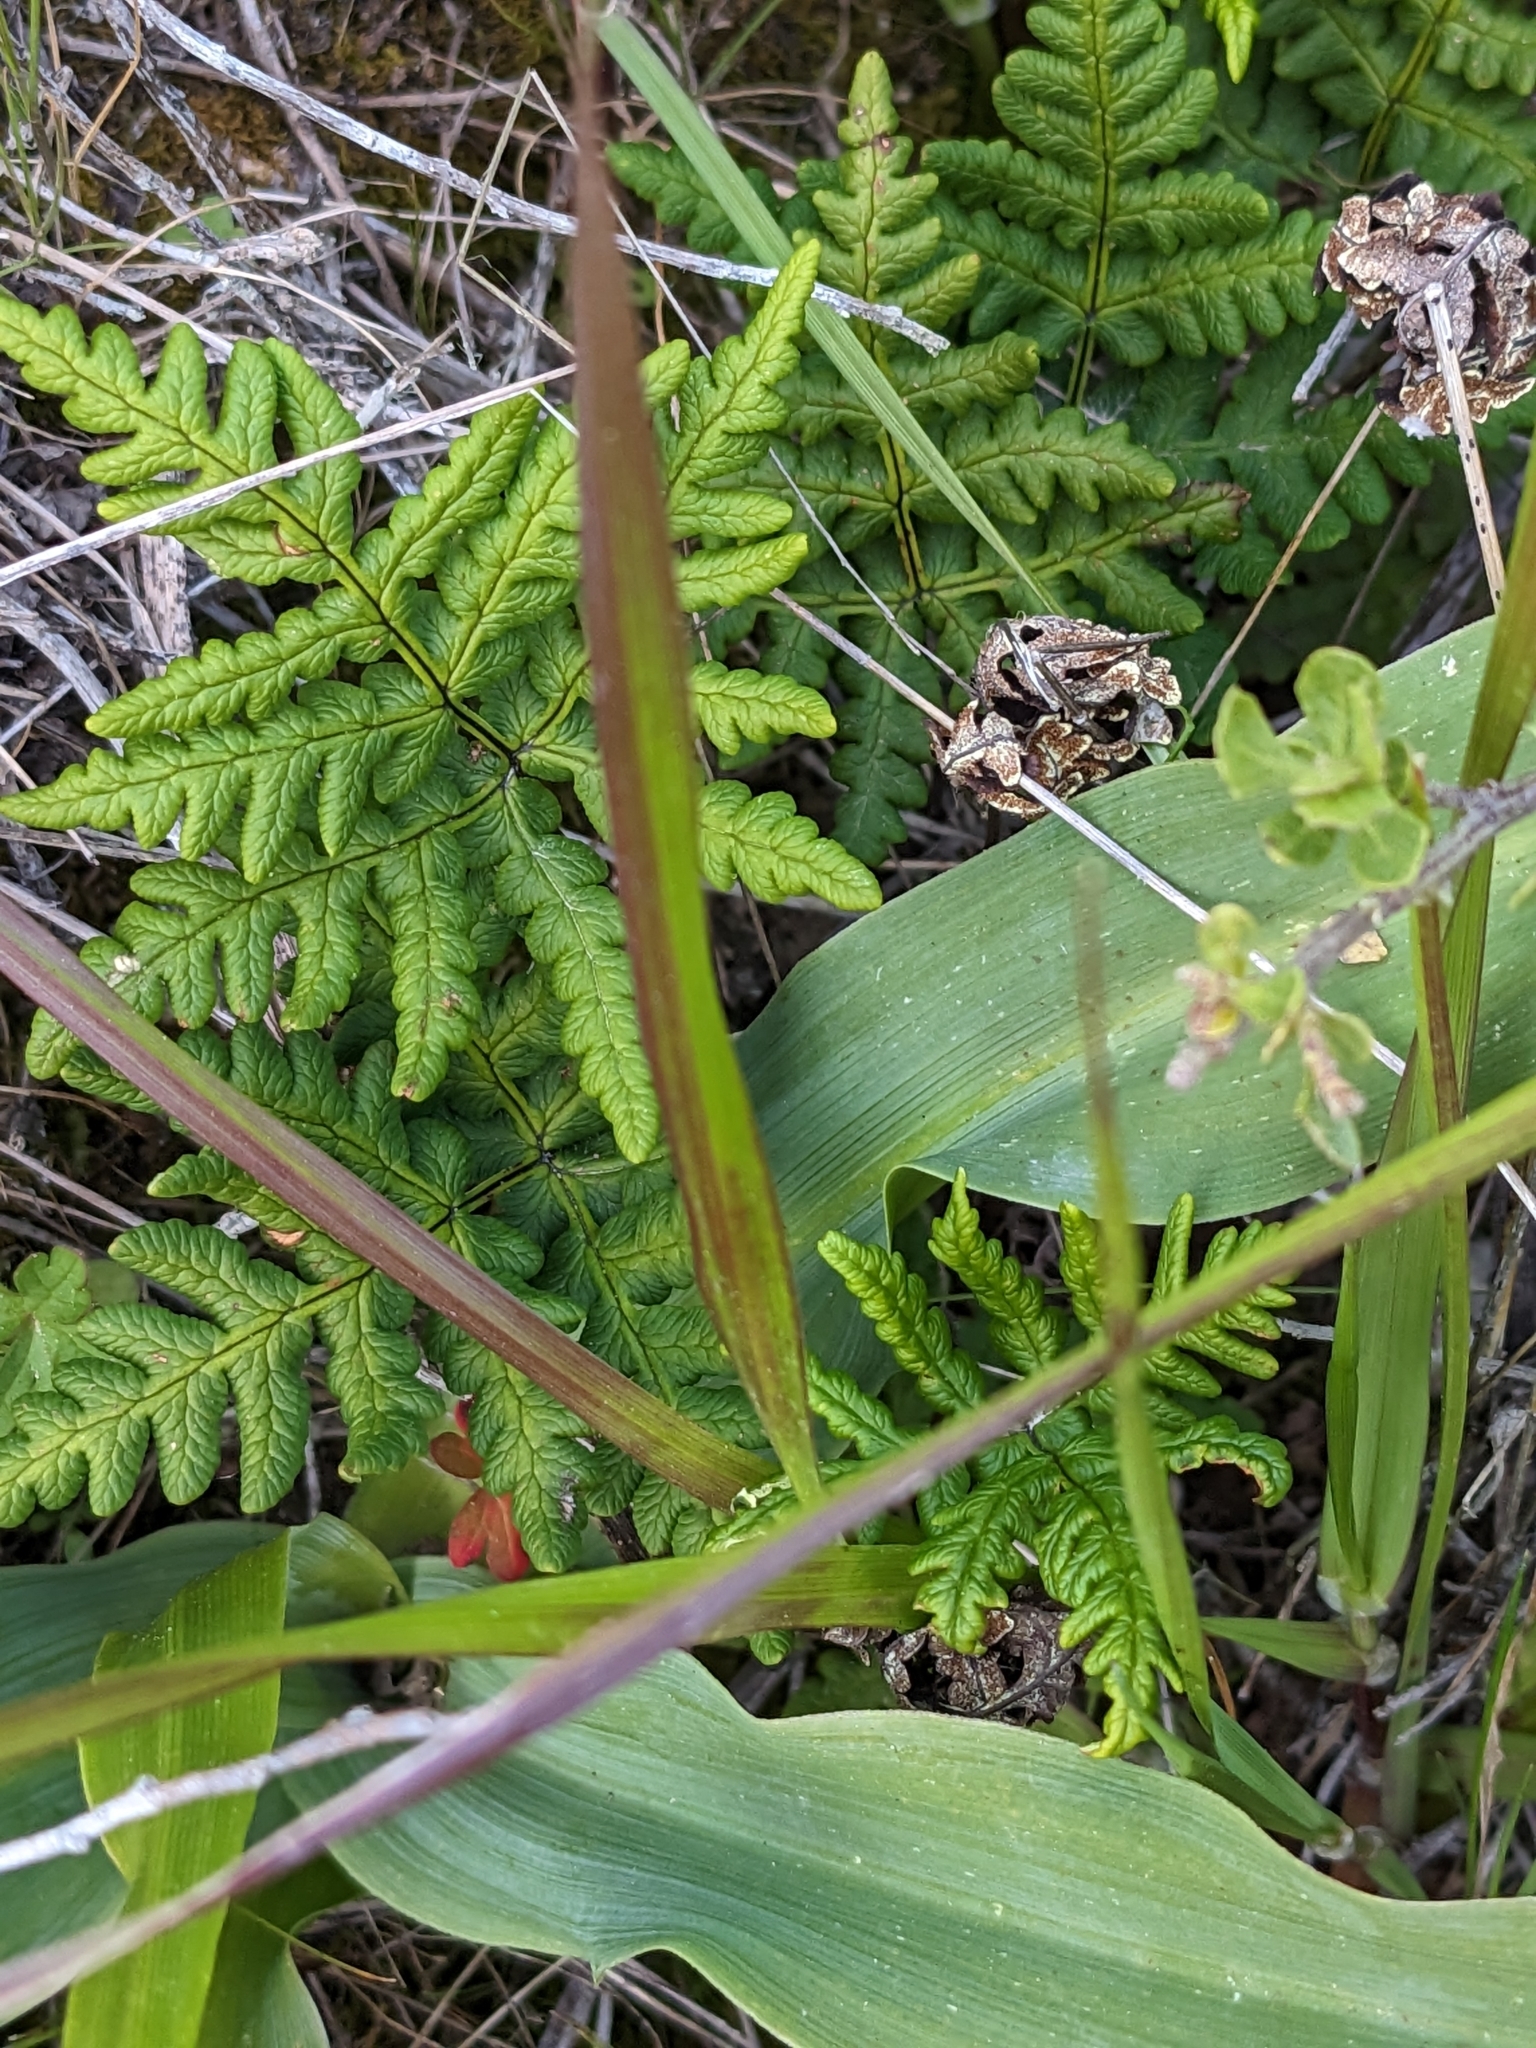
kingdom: Plantae
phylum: Tracheophyta
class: Polypodiopsida
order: Polypodiales
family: Pteridaceae
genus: Pentagramma
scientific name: Pentagramma triangularis
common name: Gold fern
